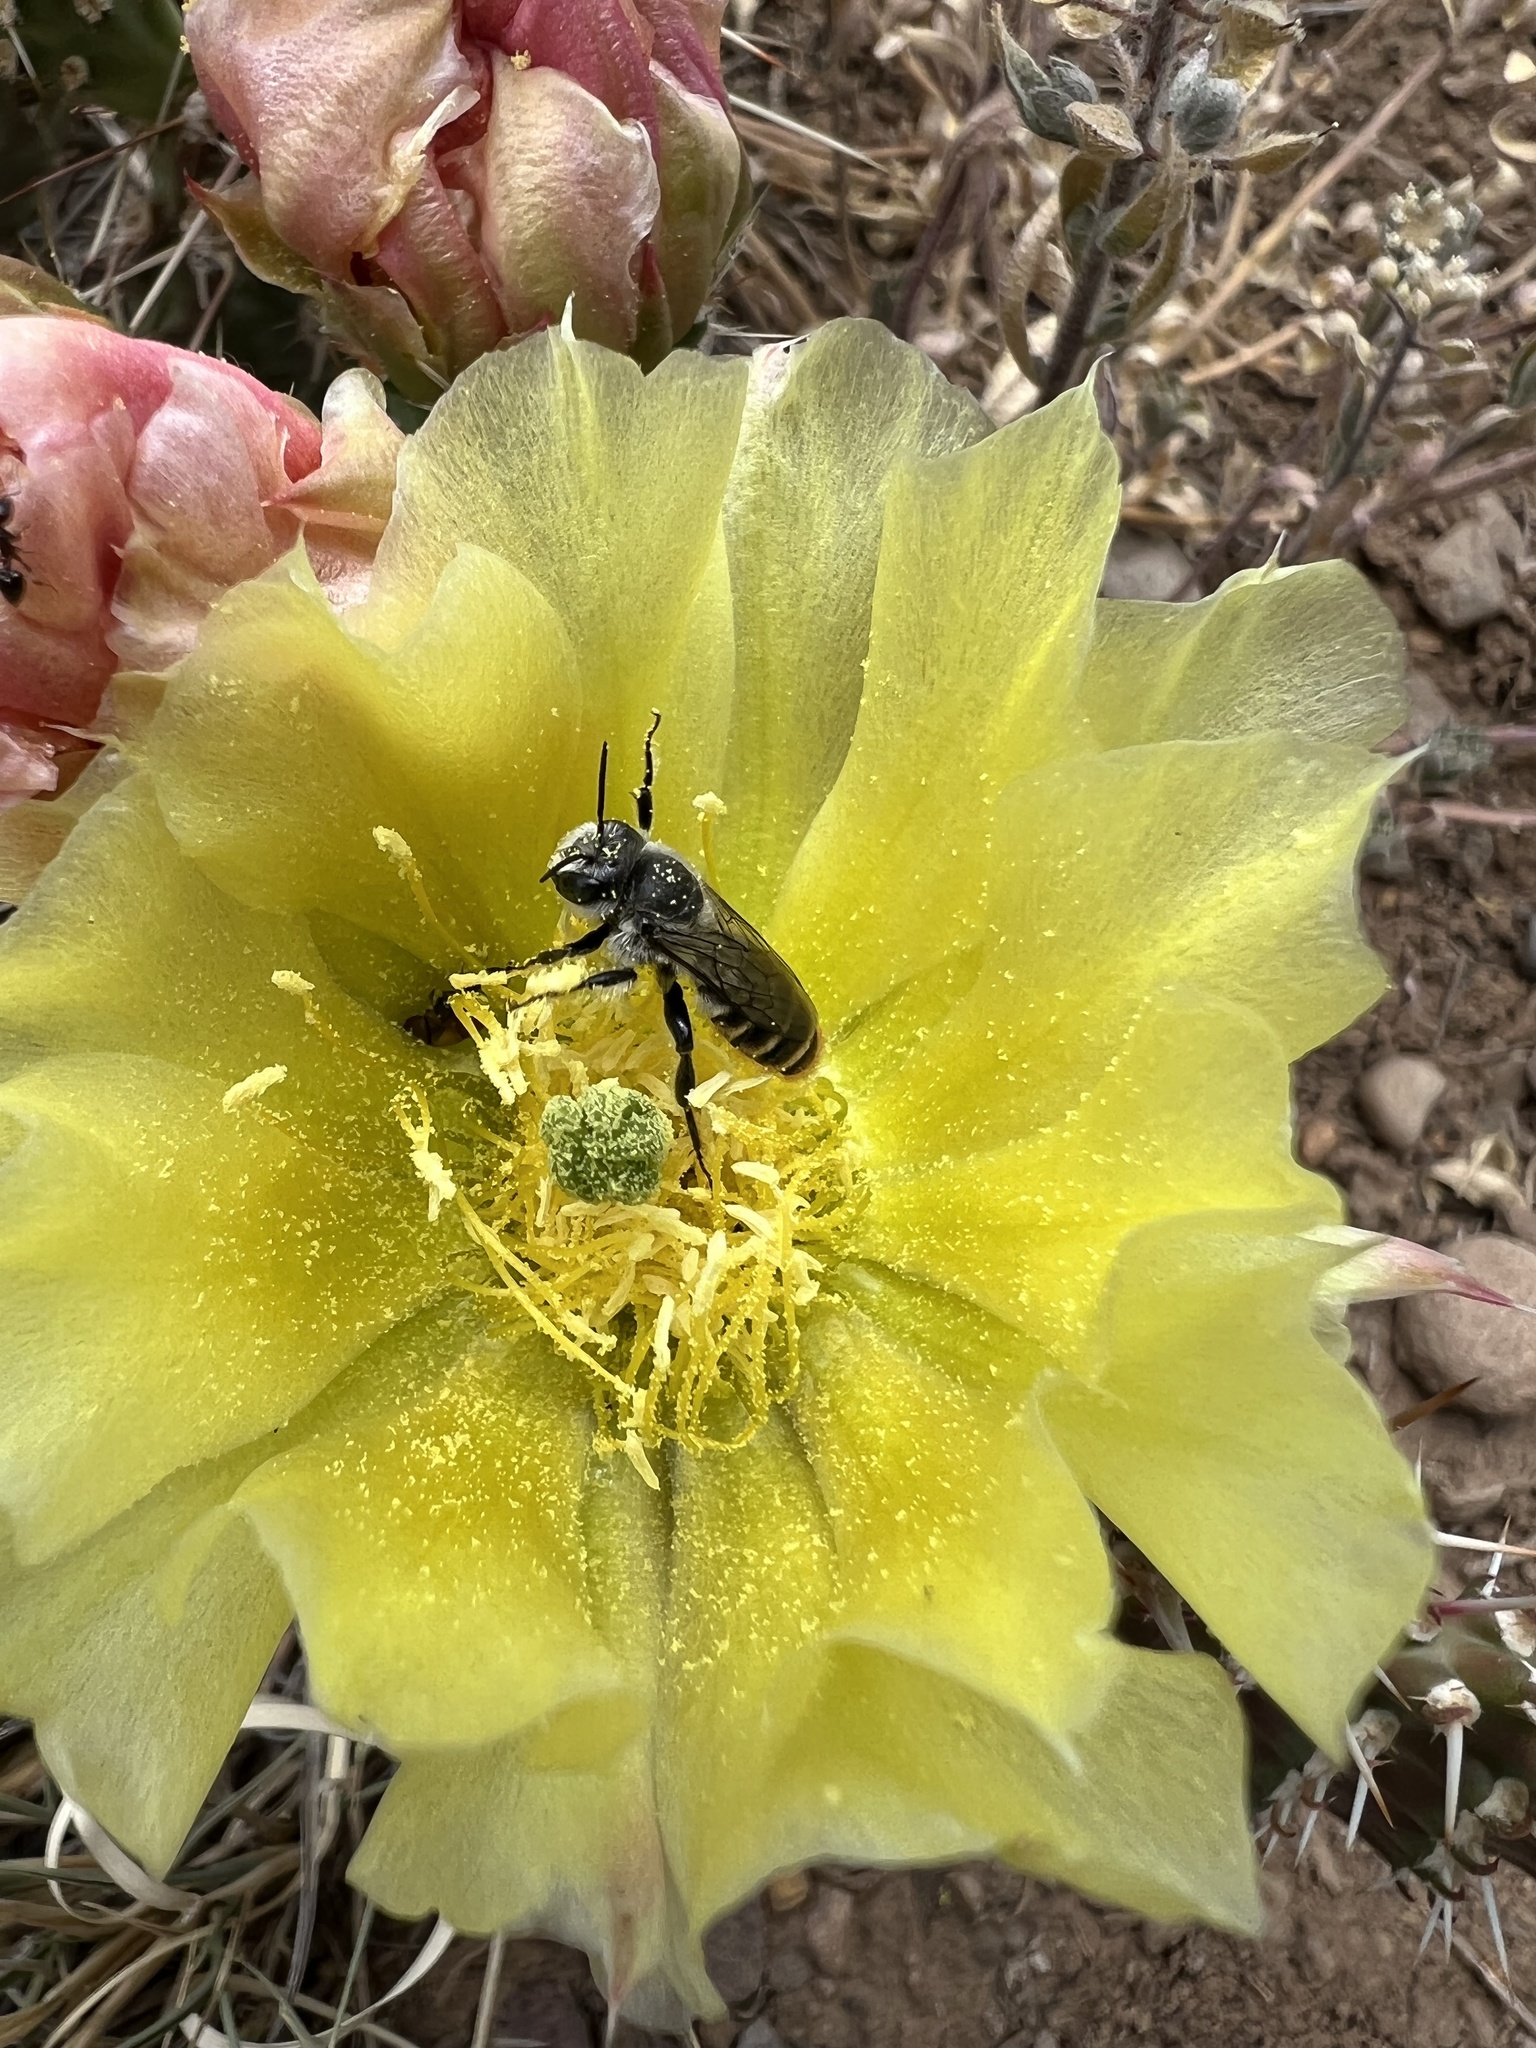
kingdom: Animalia
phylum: Arthropoda
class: Insecta
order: Hymenoptera
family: Megachilidae
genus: Lithurgopsis
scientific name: Lithurgopsis apicalis
